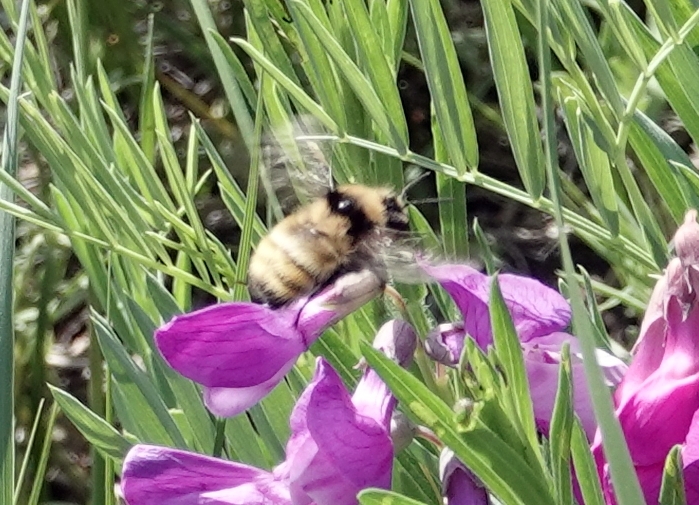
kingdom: Animalia
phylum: Arthropoda
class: Insecta
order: Hymenoptera
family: Apidae
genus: Bombus
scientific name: Bombus fervidus
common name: Yellow bumble bee
